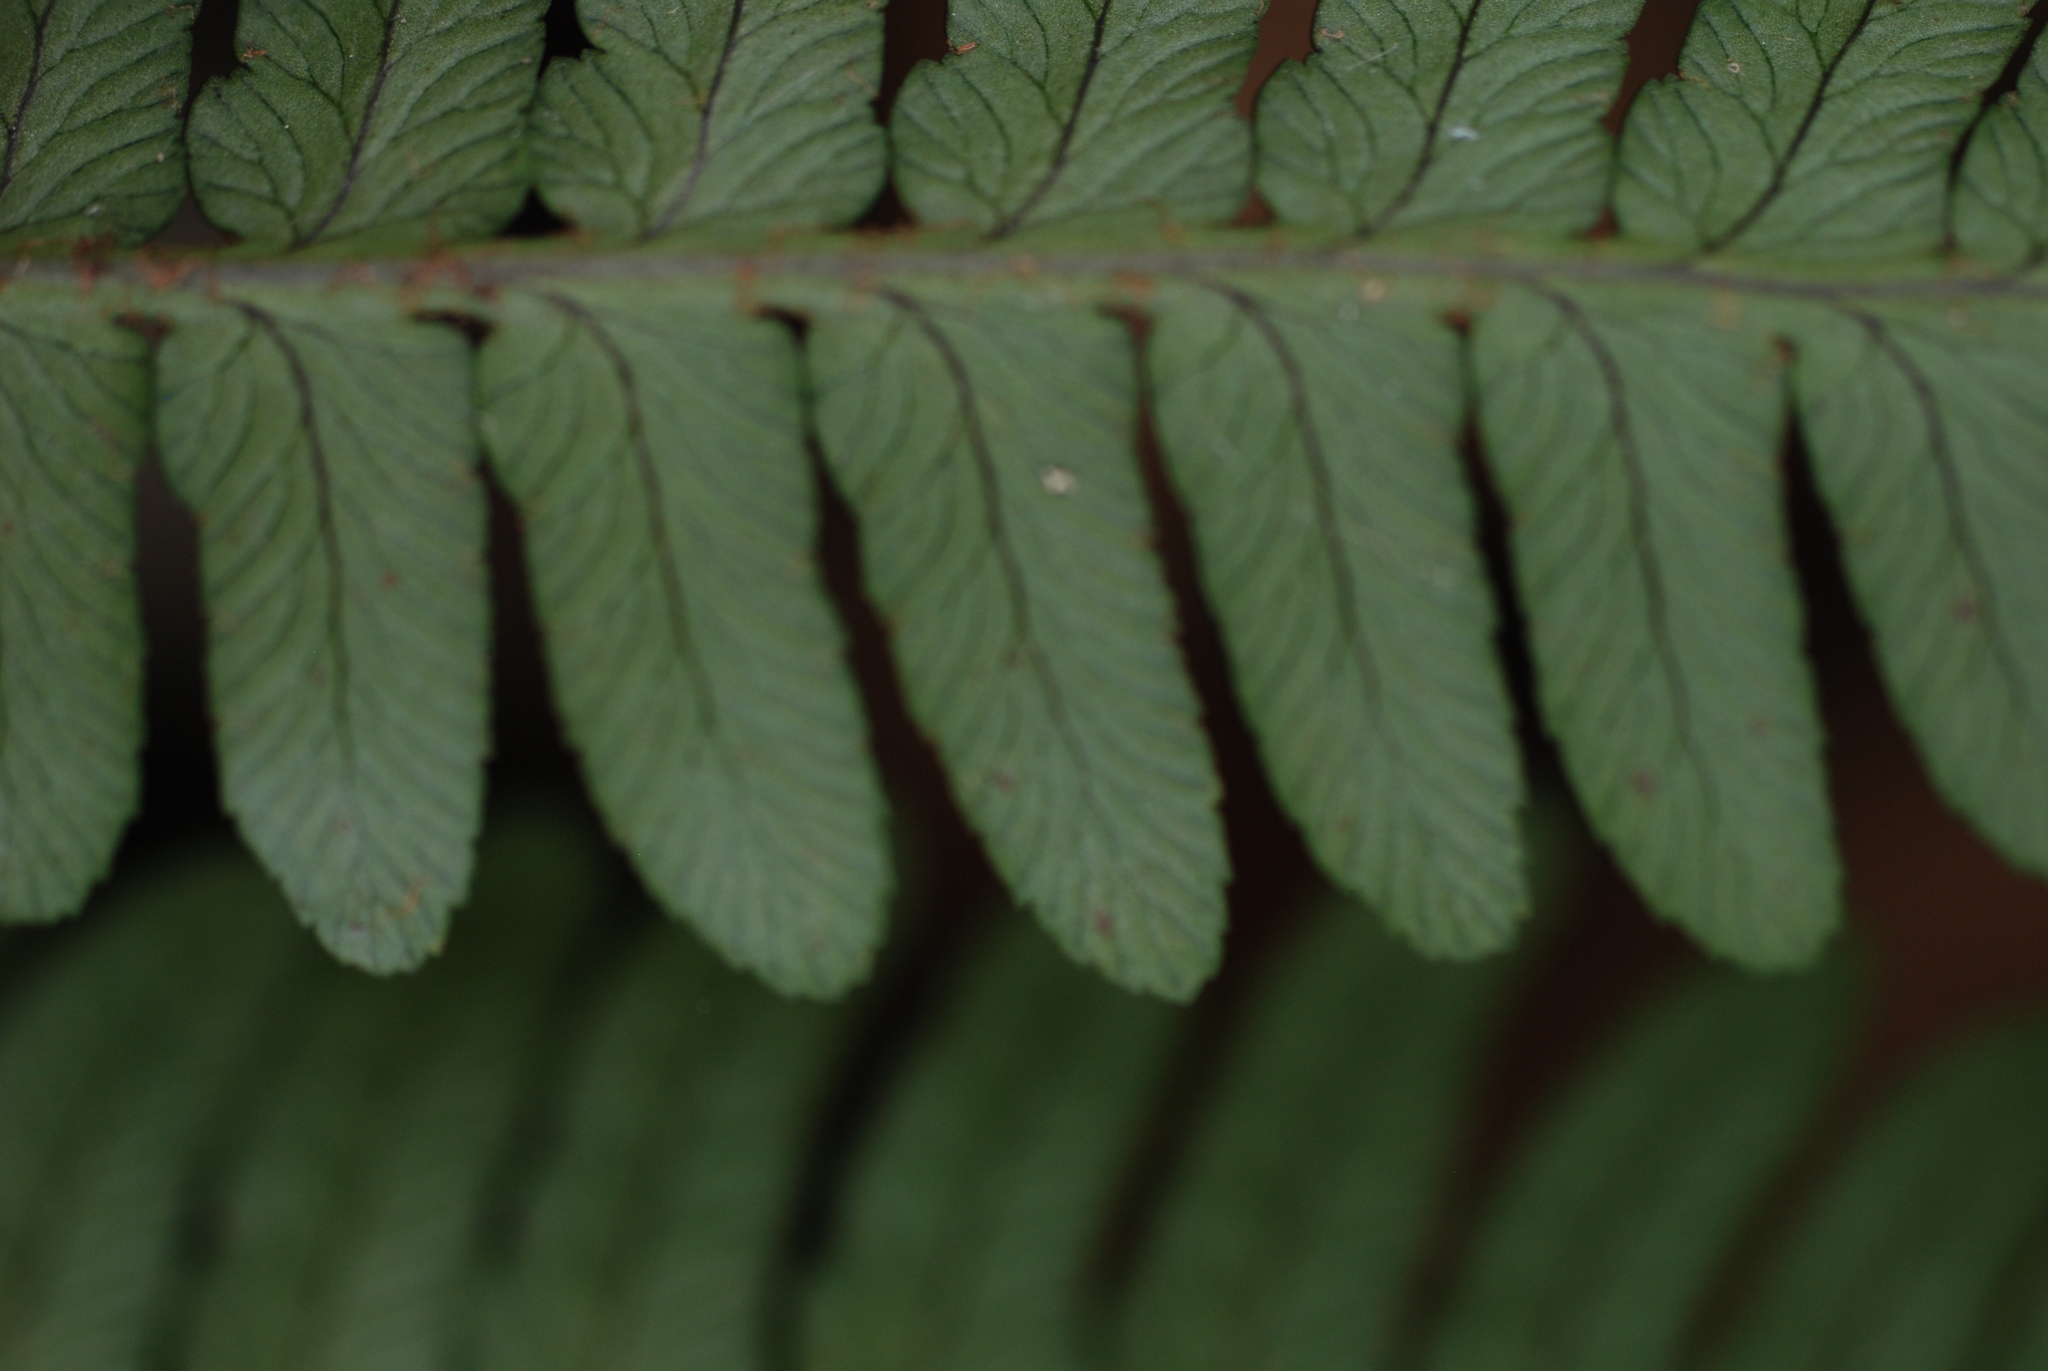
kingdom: Plantae
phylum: Tracheophyta
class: Polypodiopsida
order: Polypodiales
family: Dryopteridaceae
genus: Dryopteris
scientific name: Dryopteris marginalis
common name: Marginal wood fern
